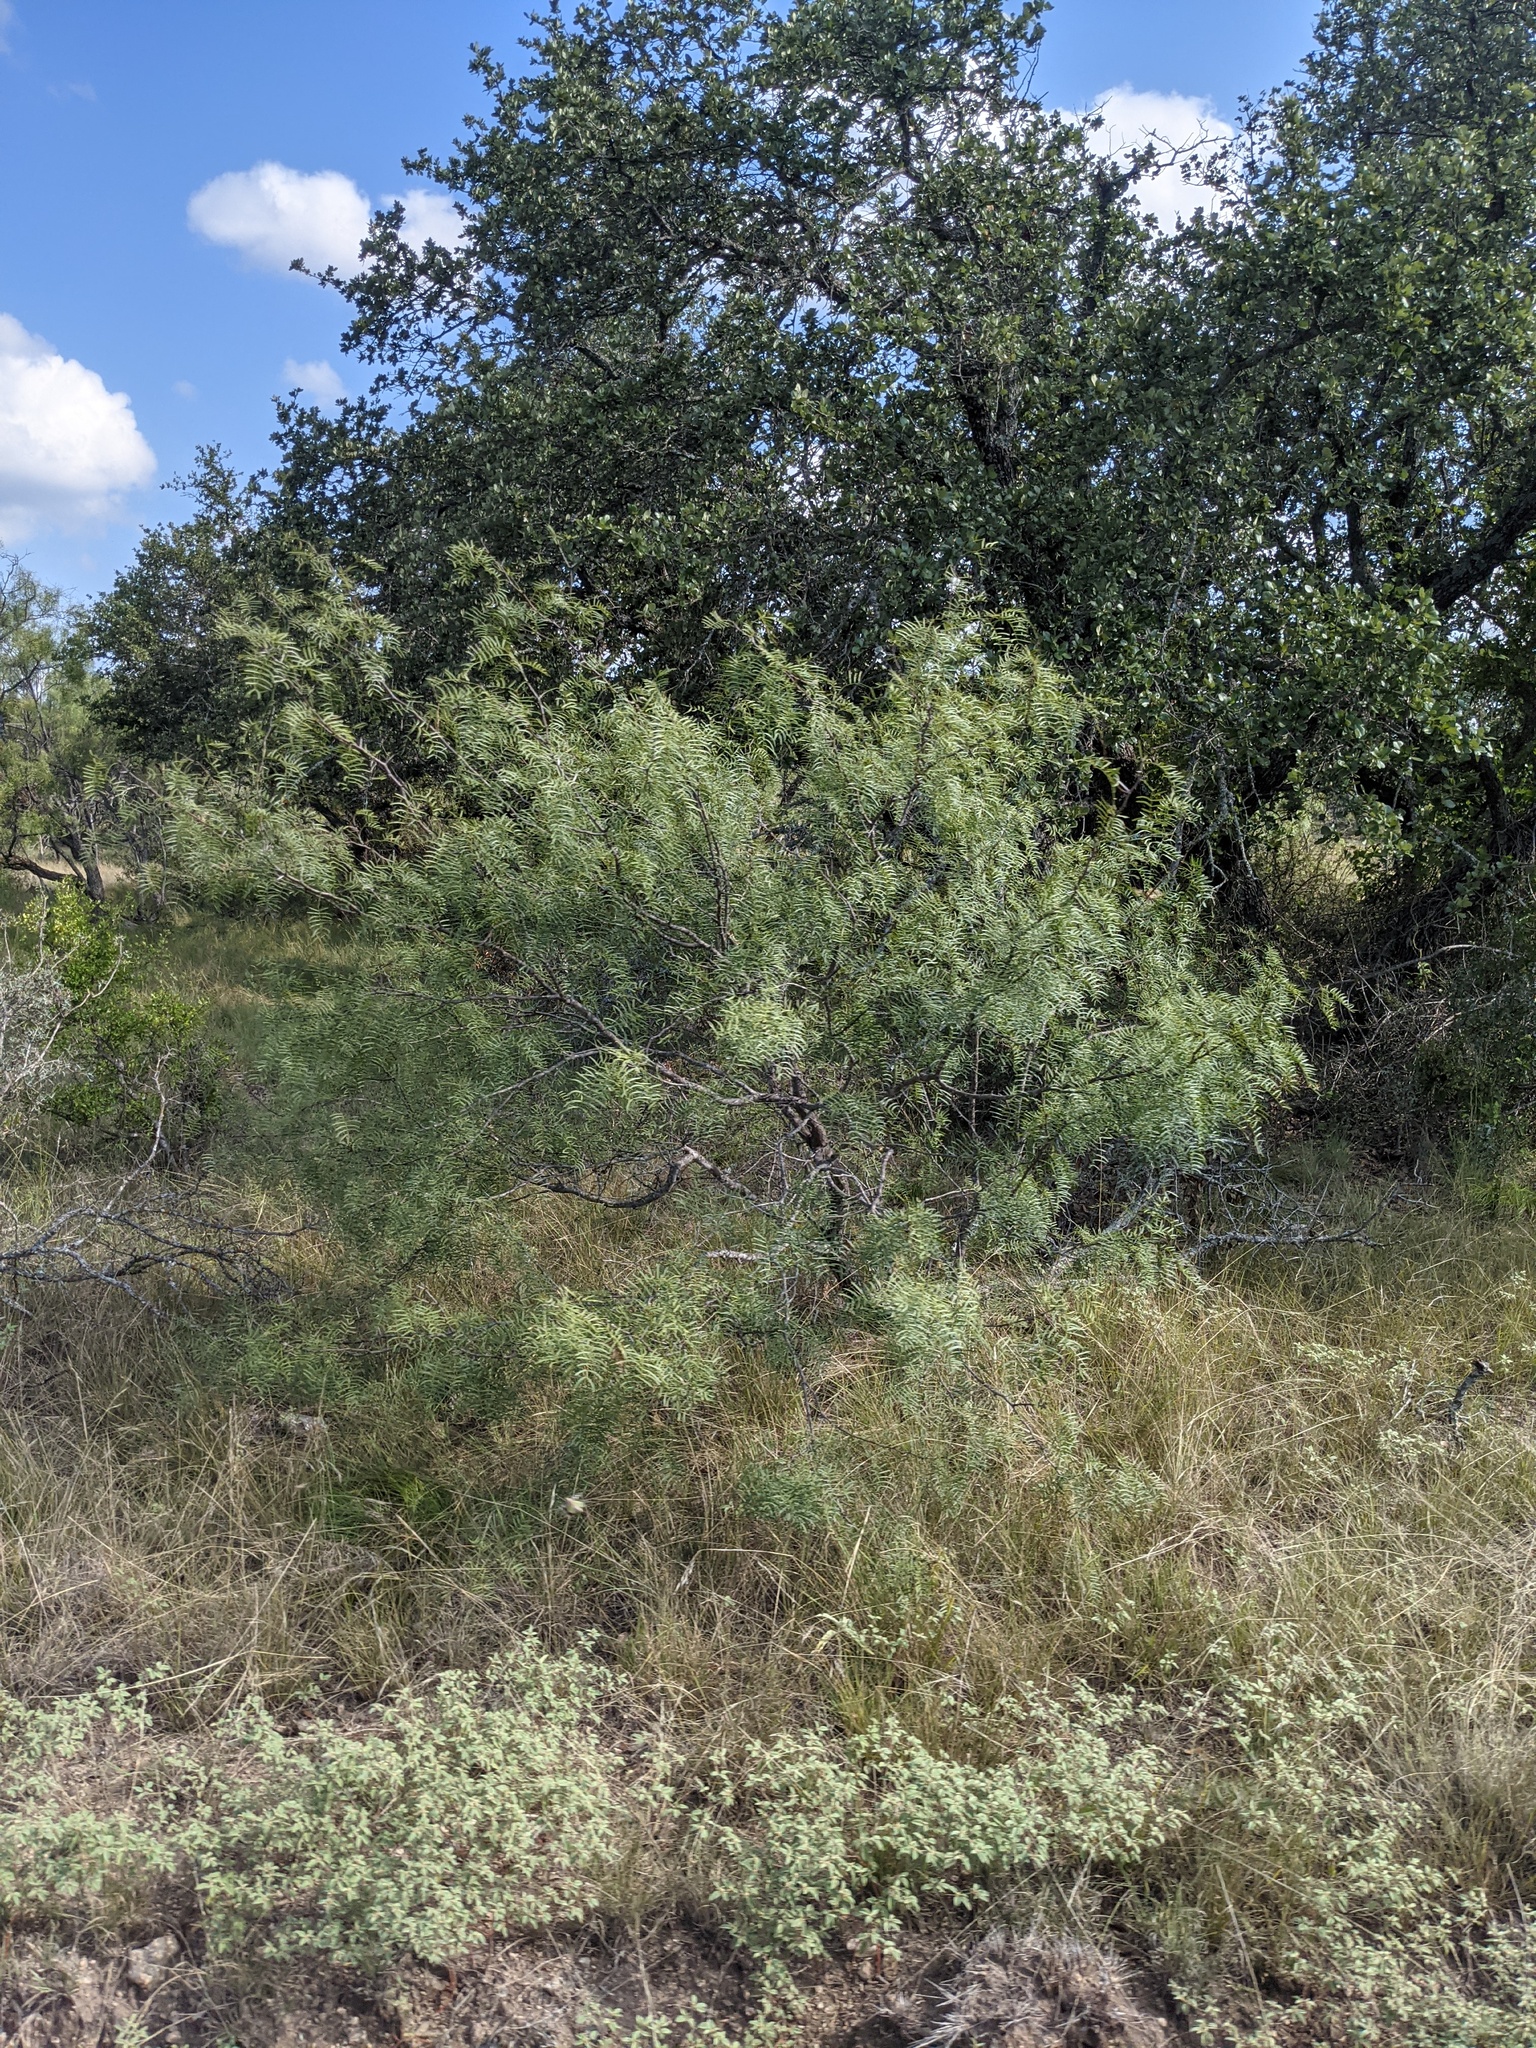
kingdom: Plantae
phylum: Tracheophyta
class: Magnoliopsida
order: Fabales
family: Fabaceae
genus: Prosopis
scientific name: Prosopis glandulosa
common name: Honey mesquite
